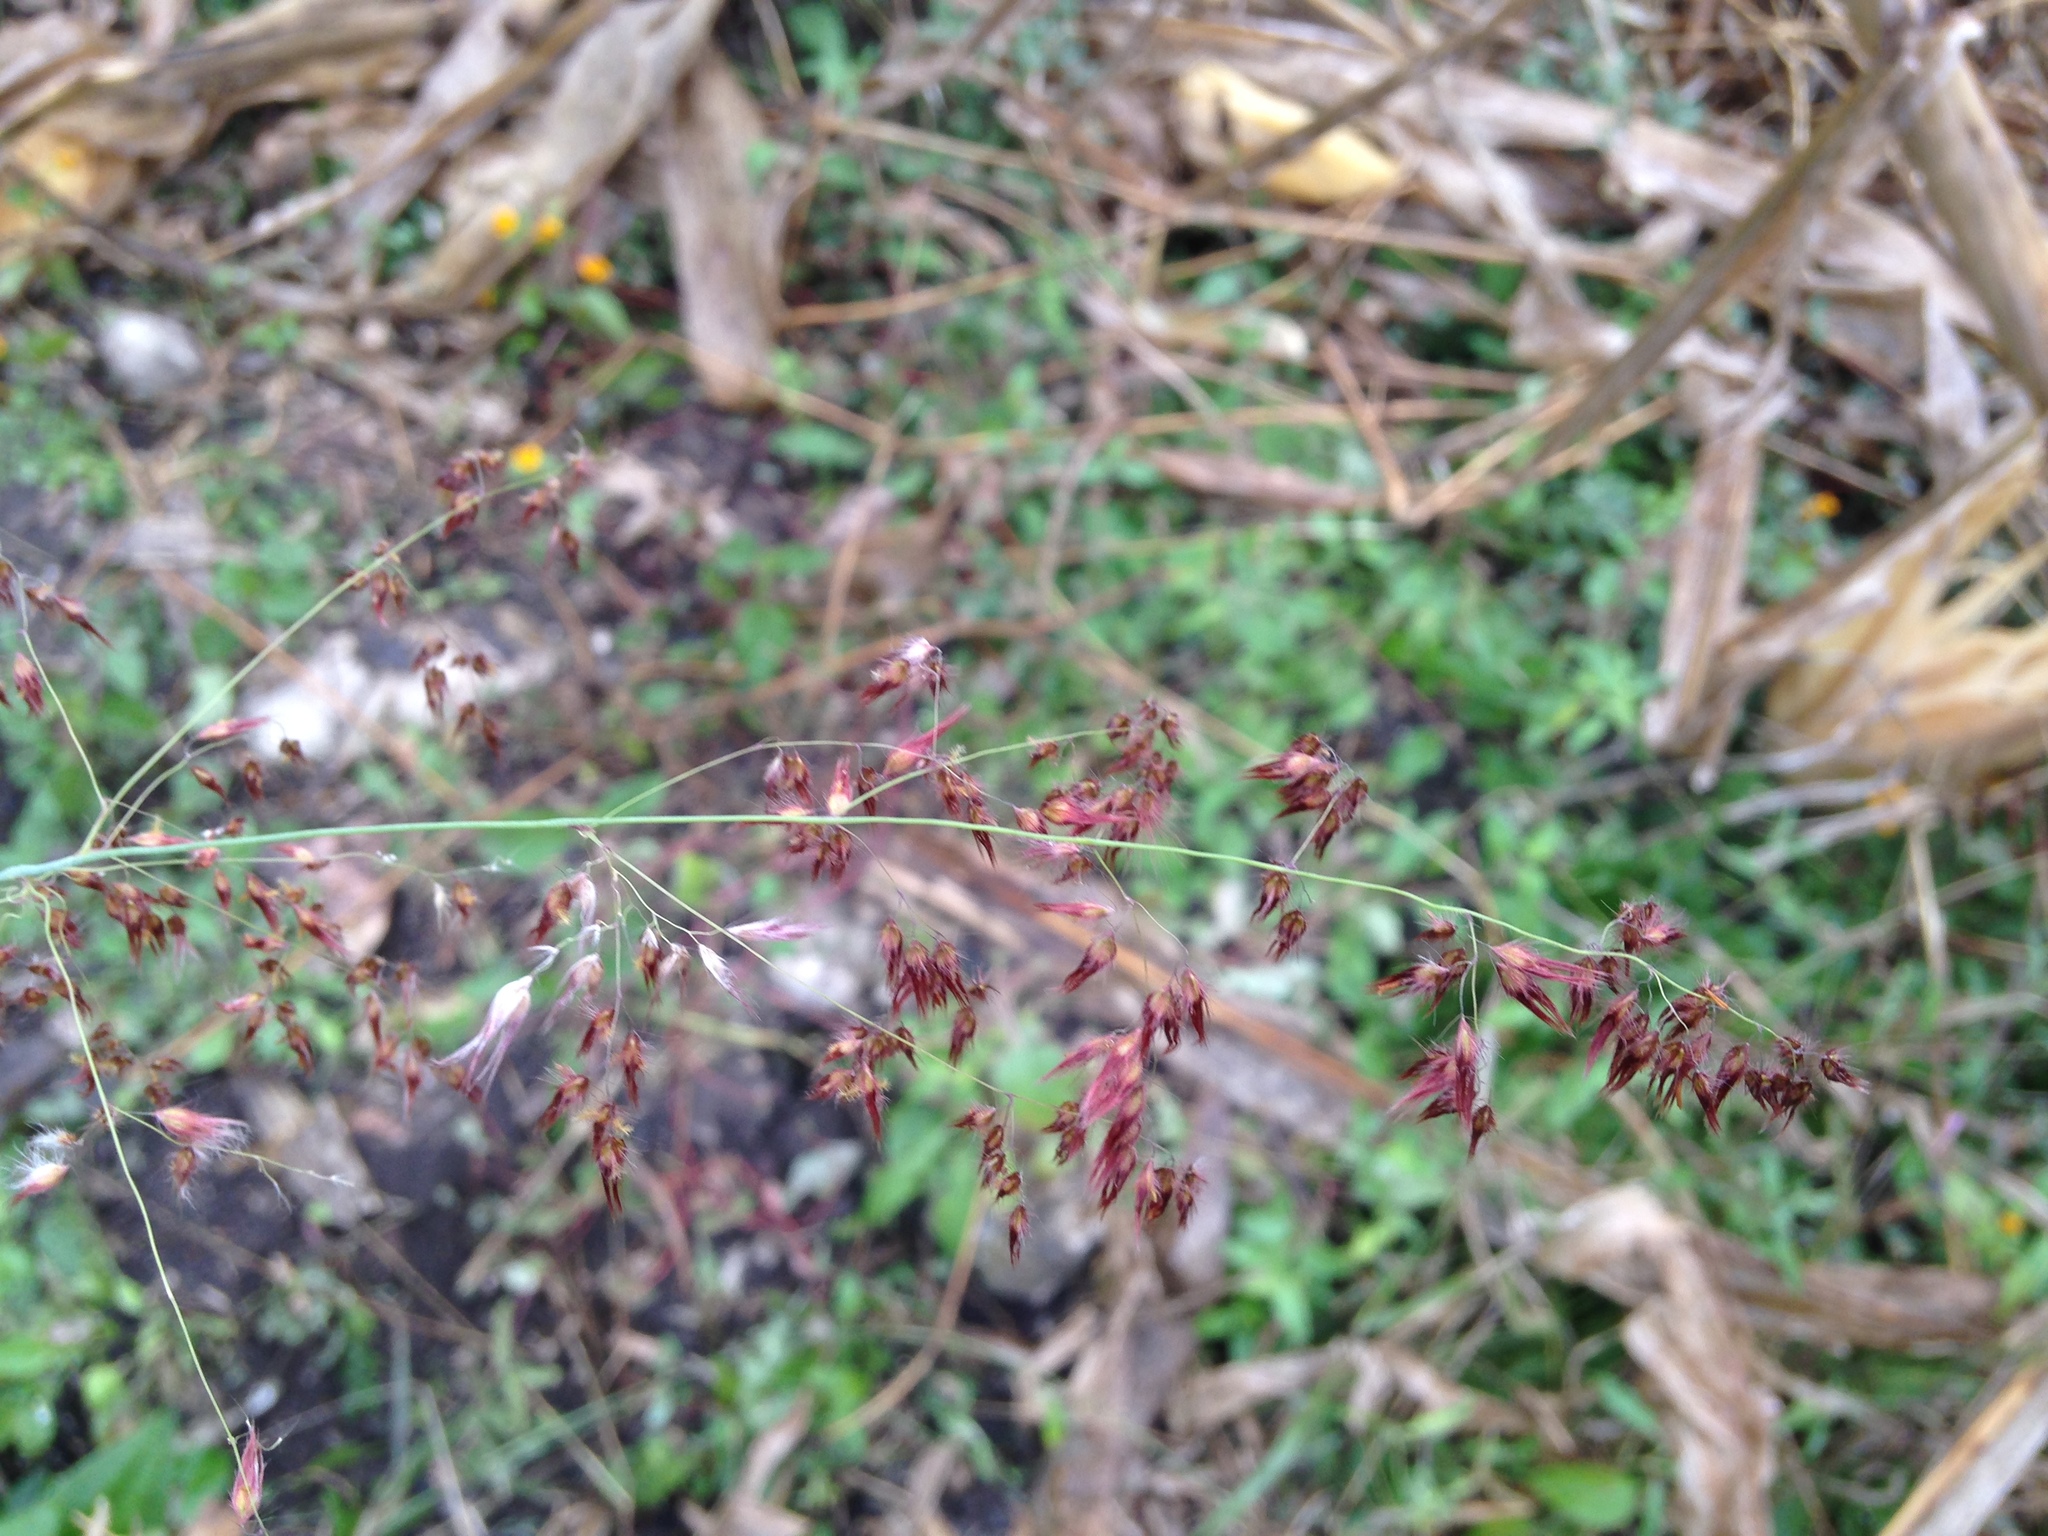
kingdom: Plantae
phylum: Tracheophyta
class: Liliopsida
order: Poales
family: Poaceae
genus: Melinis
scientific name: Melinis repens
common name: Rose natal grass
